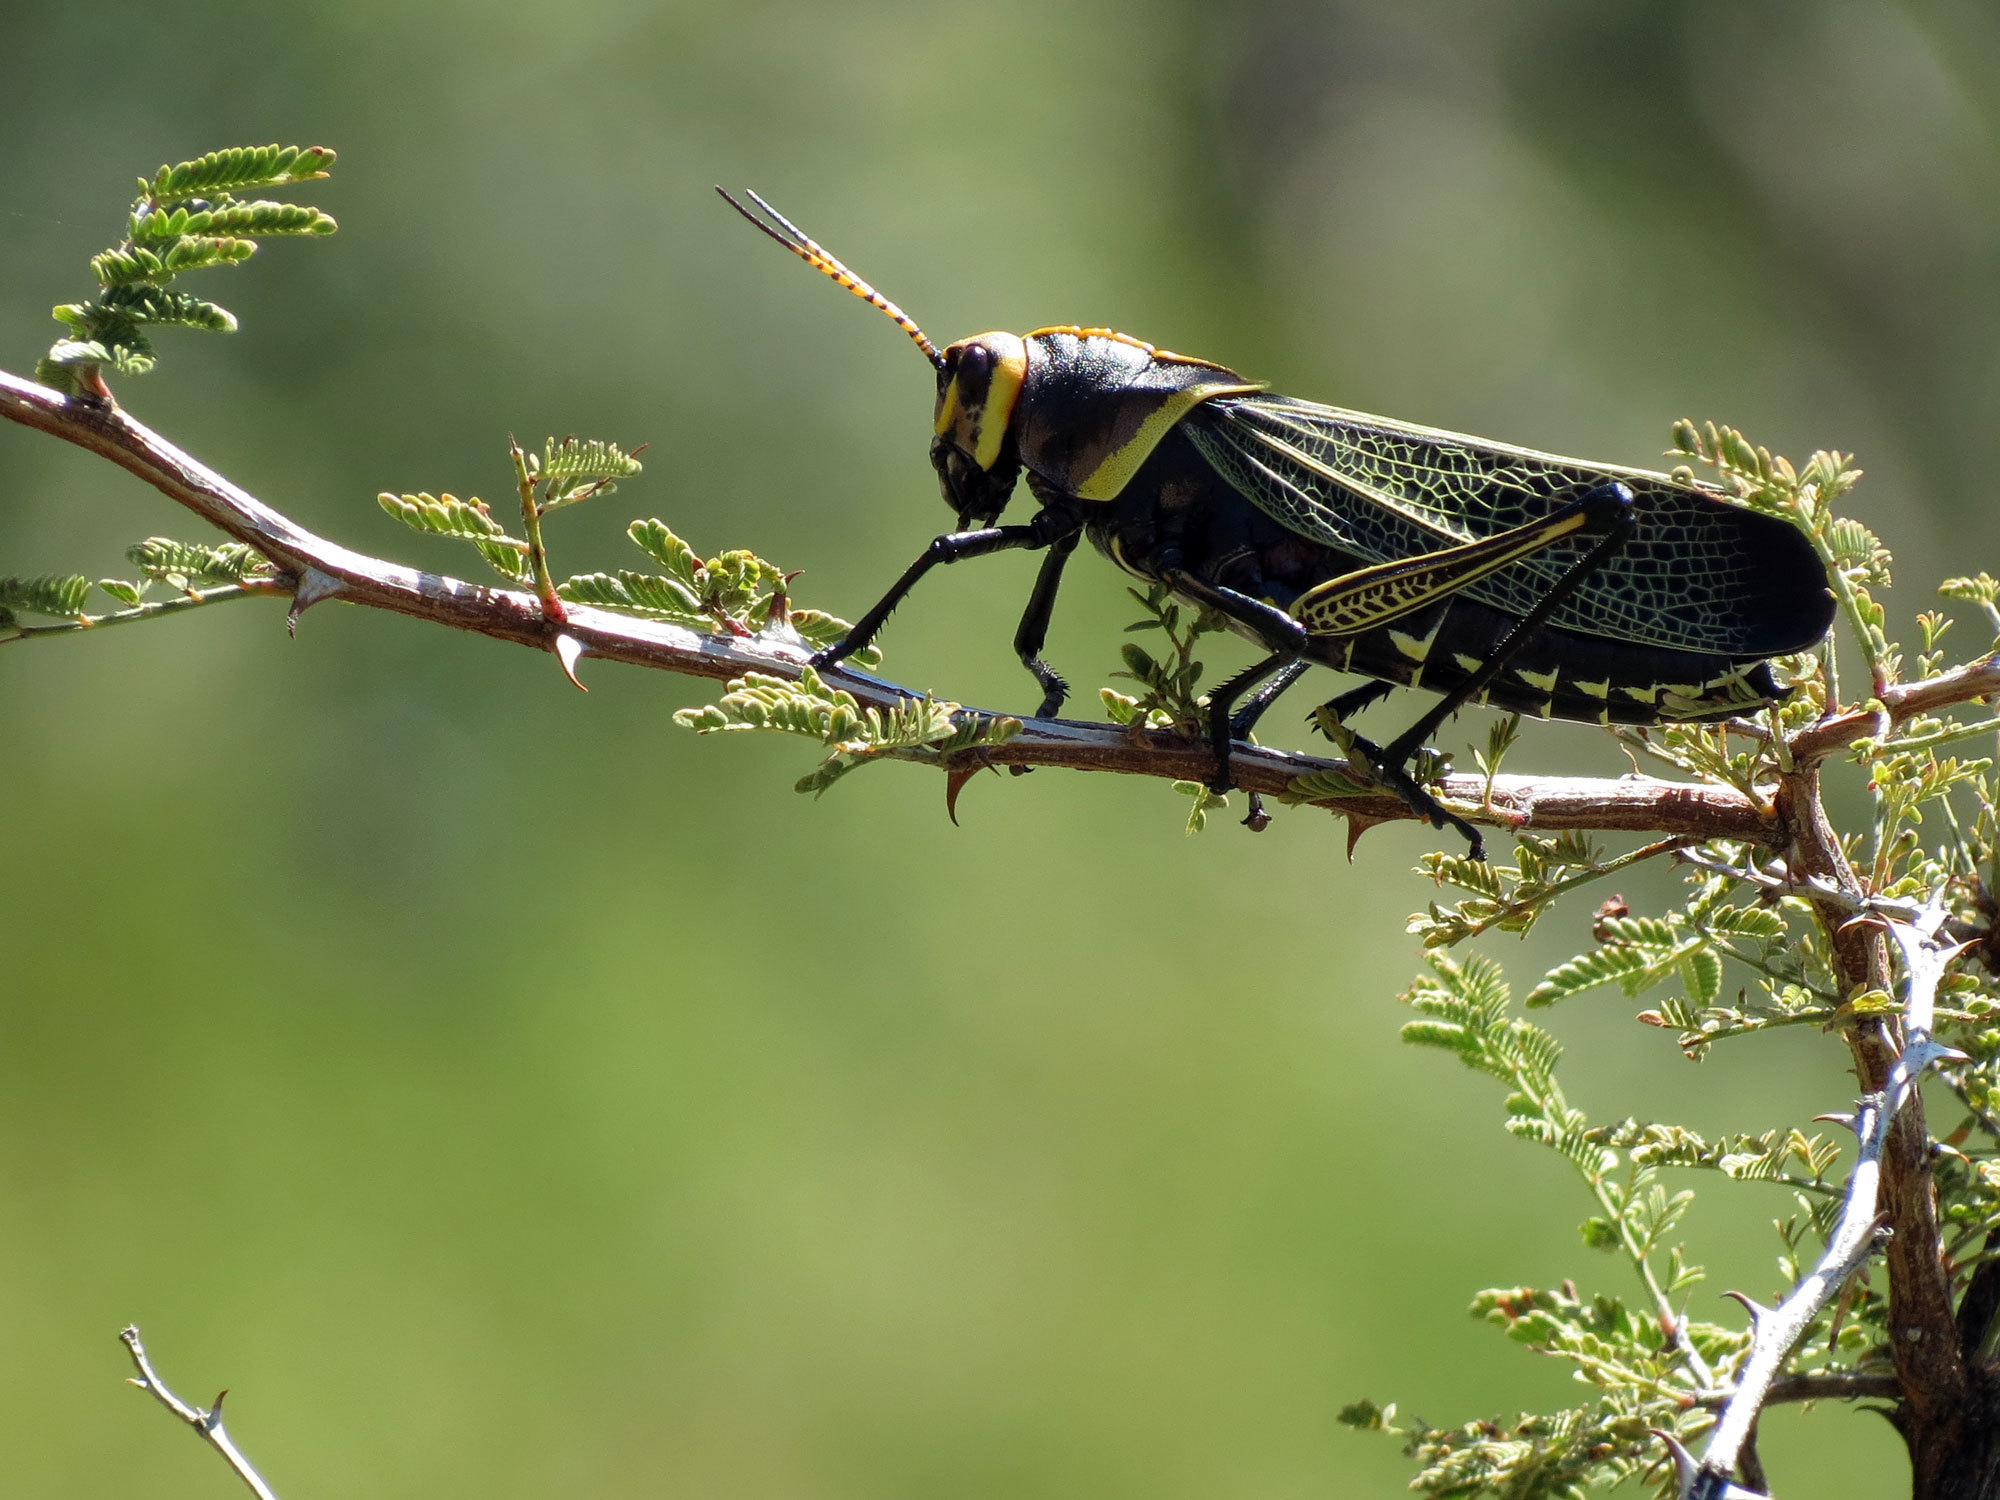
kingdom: Animalia
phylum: Arthropoda
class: Insecta
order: Orthoptera
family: Romaleidae
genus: Romalea
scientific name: Romalea
